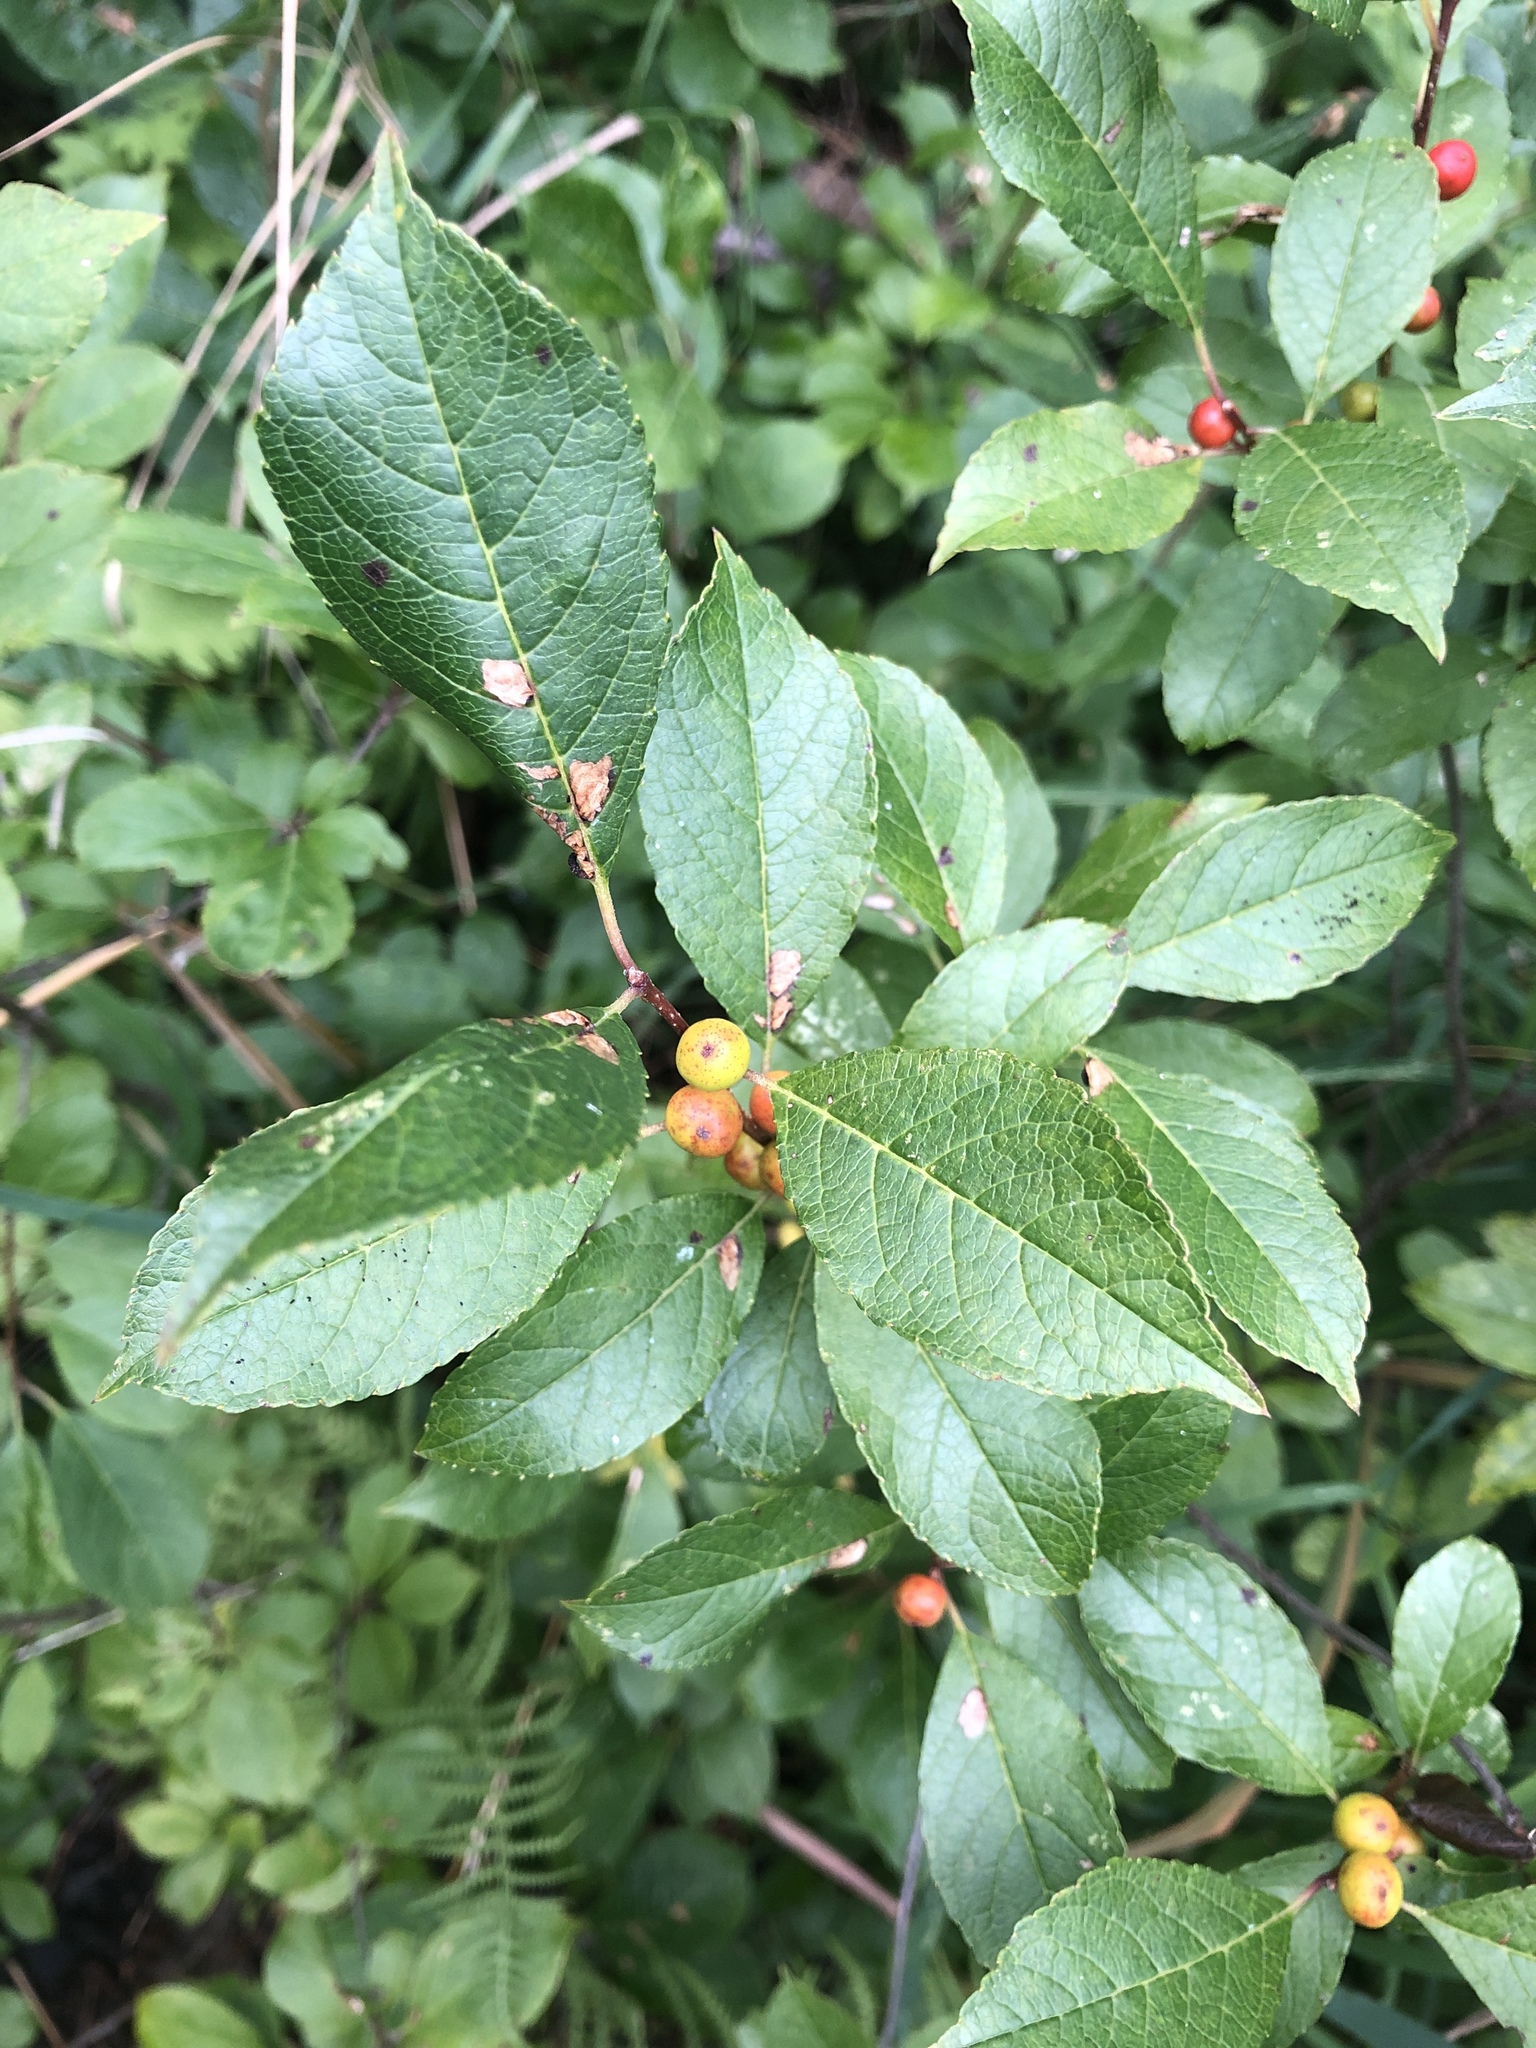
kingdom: Plantae
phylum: Tracheophyta
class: Magnoliopsida
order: Aquifoliales
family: Aquifoliaceae
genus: Ilex
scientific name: Ilex verticillata
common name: Virginia winterberry
